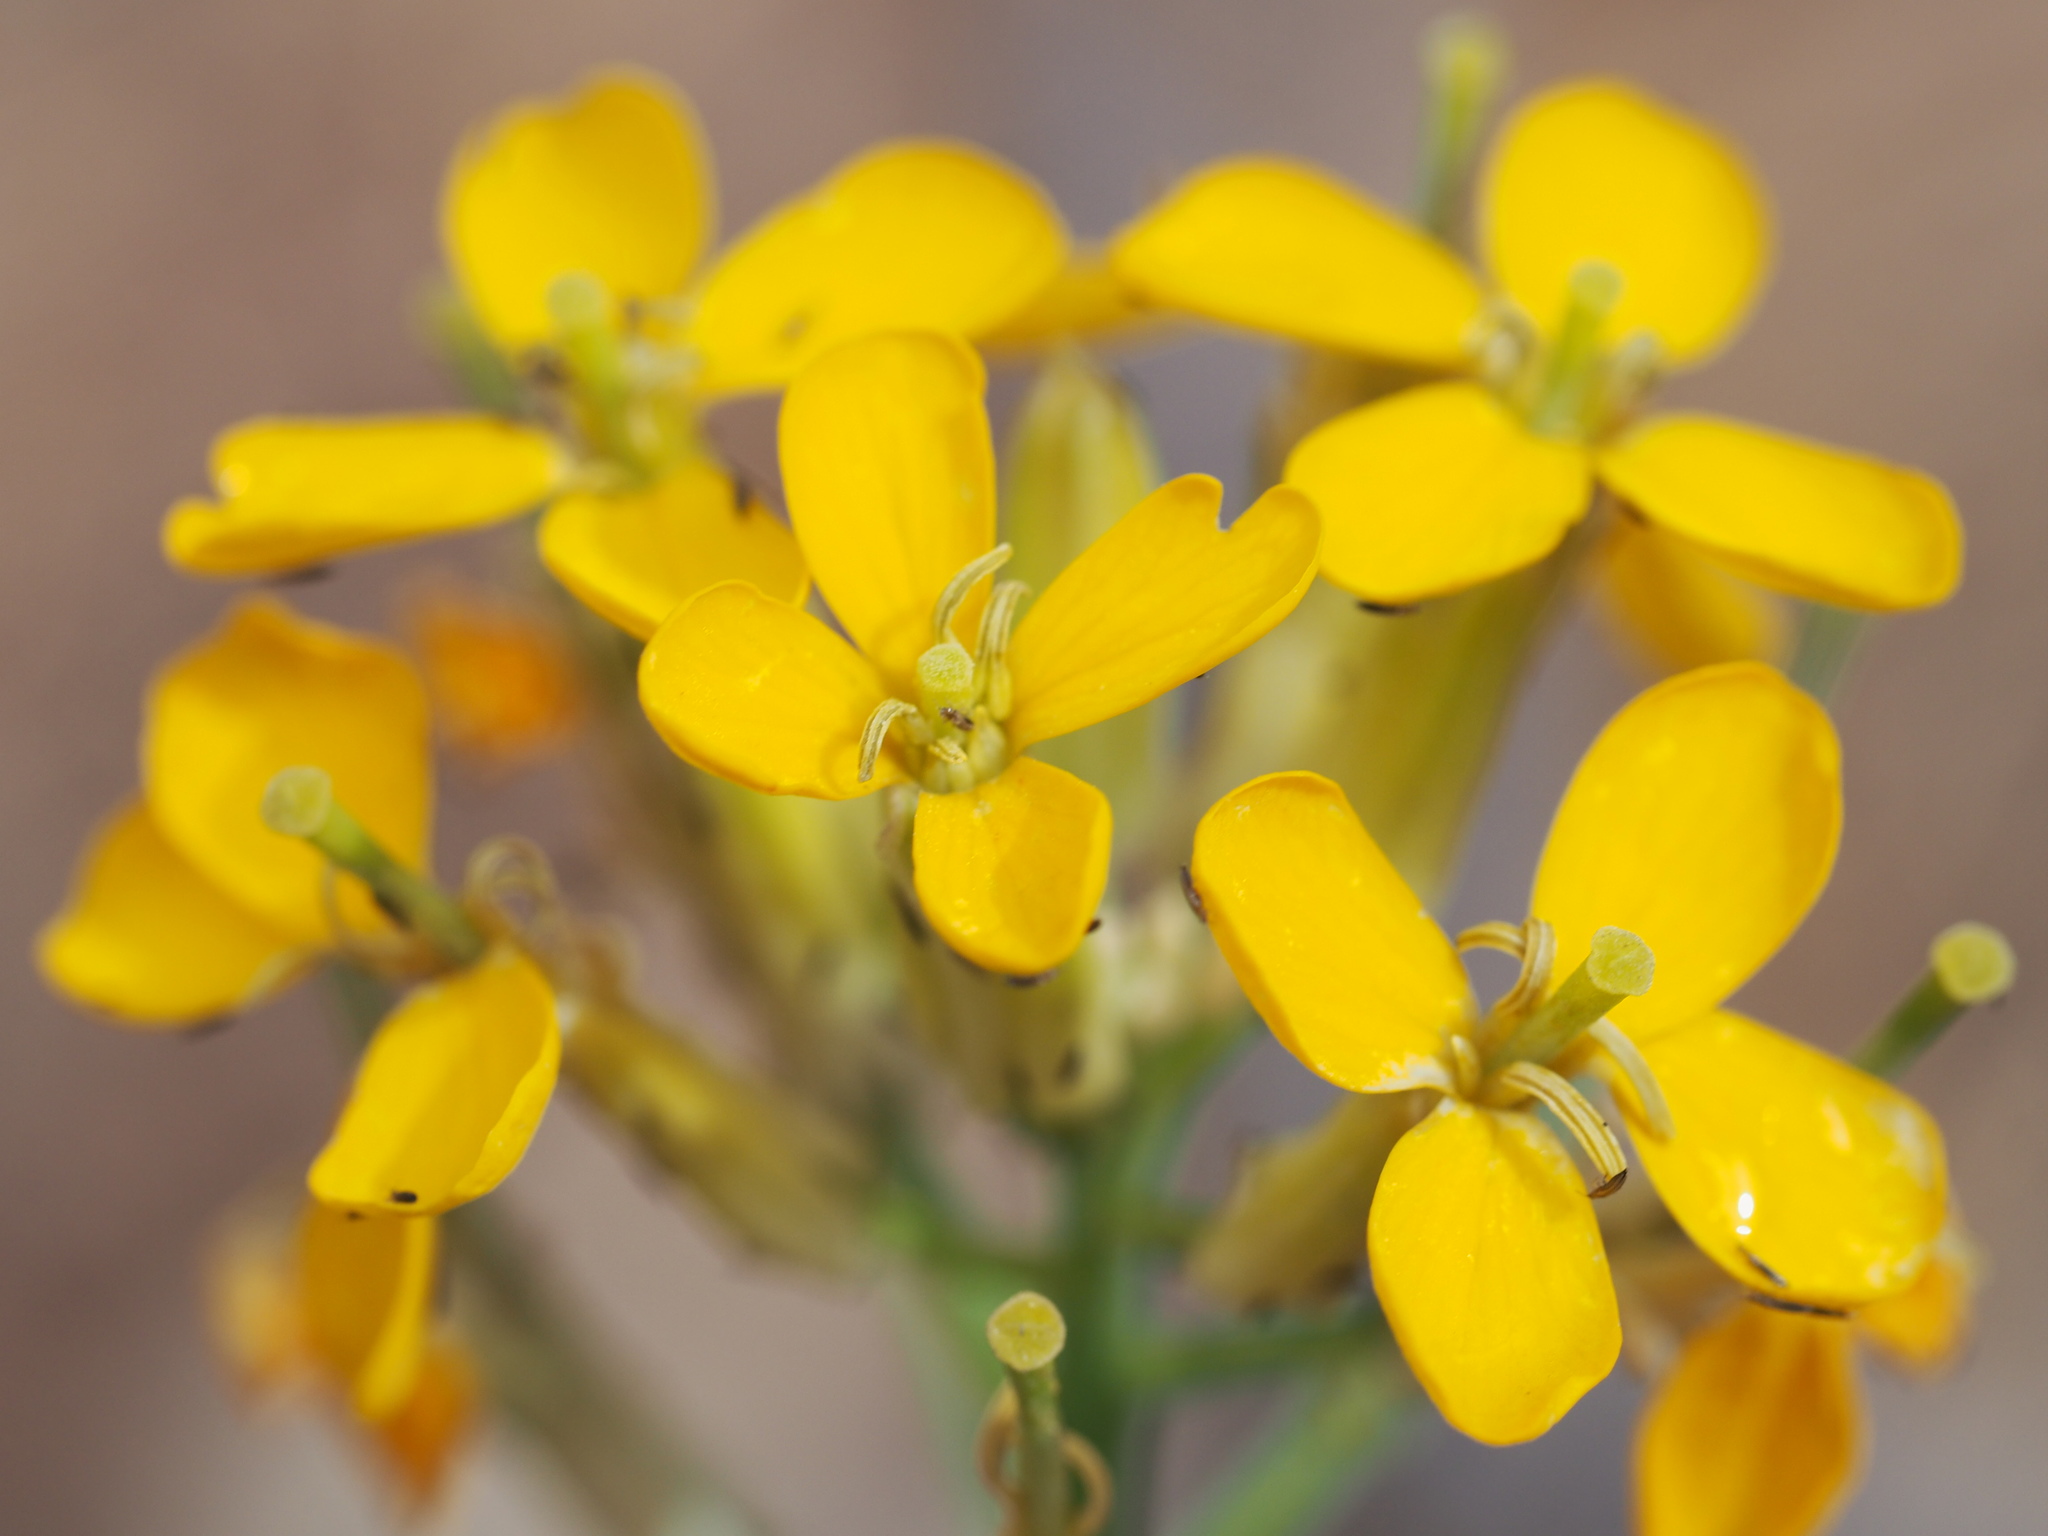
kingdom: Plantae
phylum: Tracheophyta
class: Magnoliopsida
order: Brassicales
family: Brassicaceae
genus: Erysimum
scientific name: Erysimum capitatum
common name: Western wallflower
